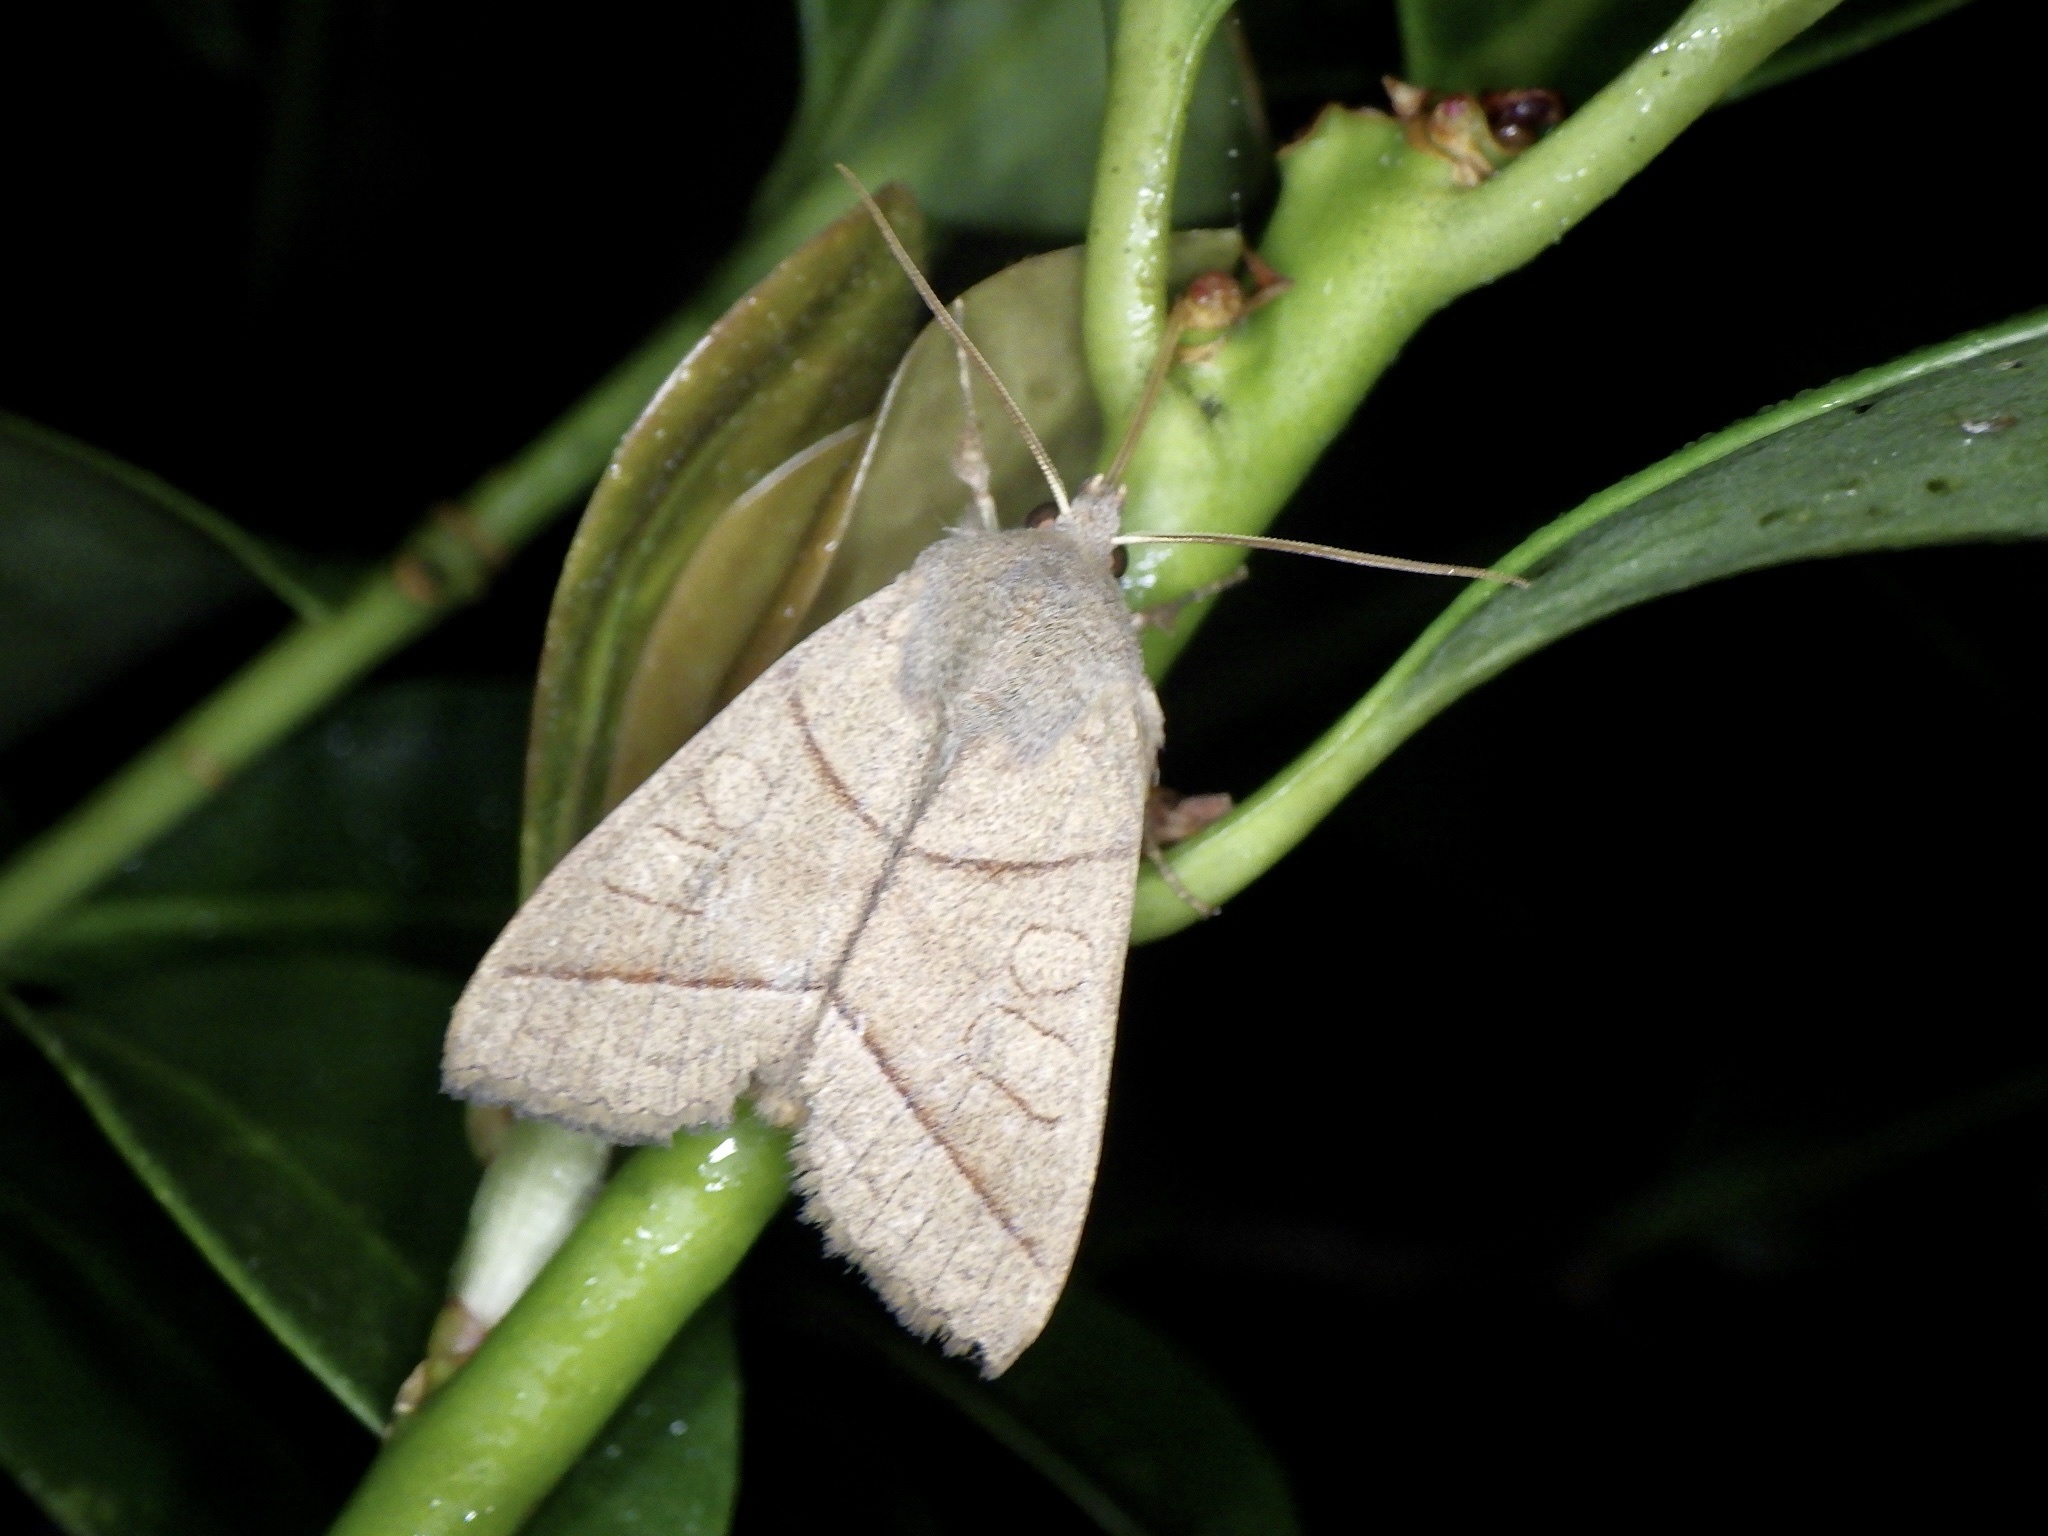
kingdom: Animalia
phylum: Arthropoda
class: Insecta
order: Lepidoptera
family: Noctuidae
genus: Telorta
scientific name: Telorta divergens
